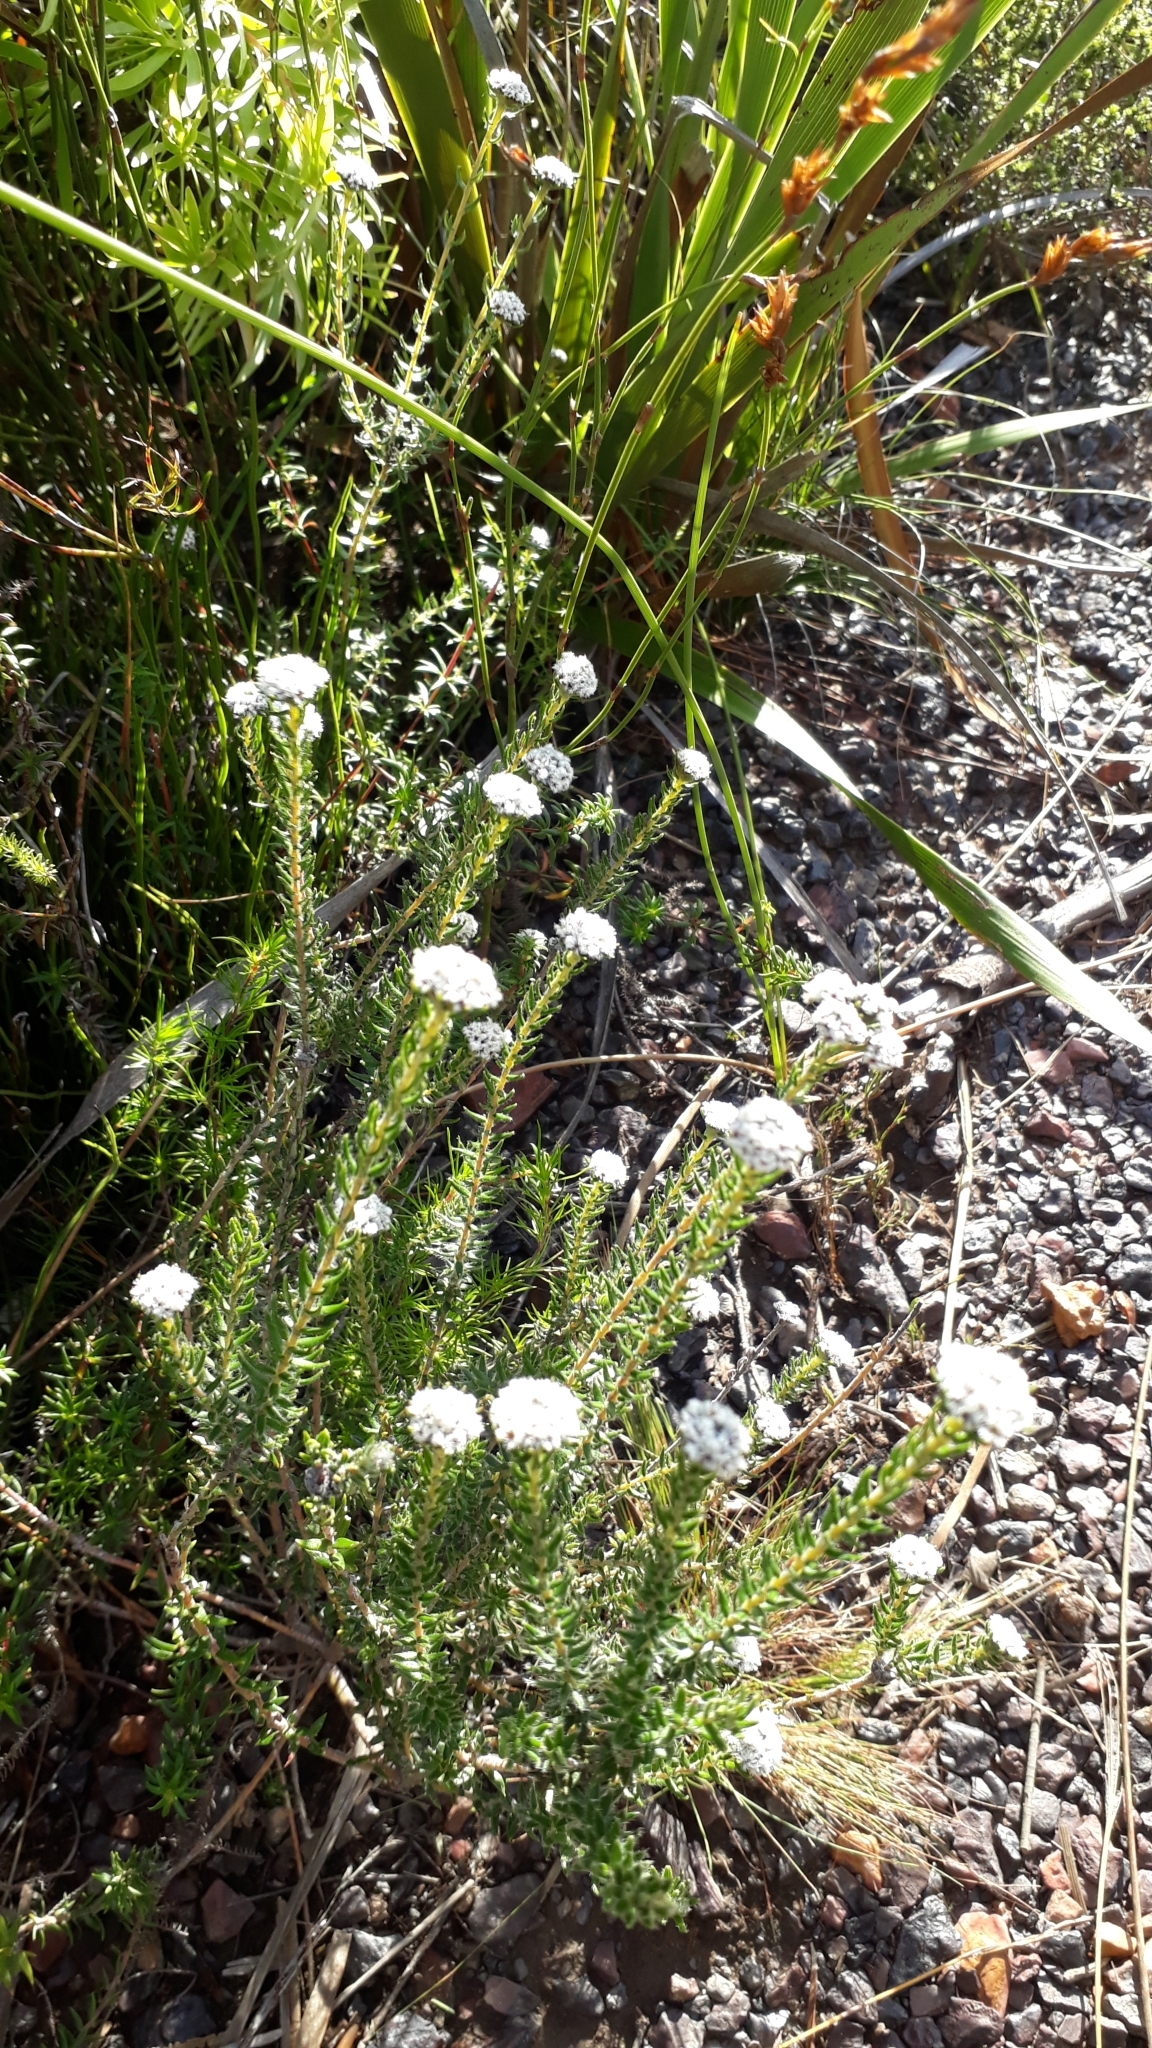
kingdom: Plantae
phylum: Tracheophyta
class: Magnoliopsida
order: Rosales
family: Rhamnaceae
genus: Phylica
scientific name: Phylica atrata
